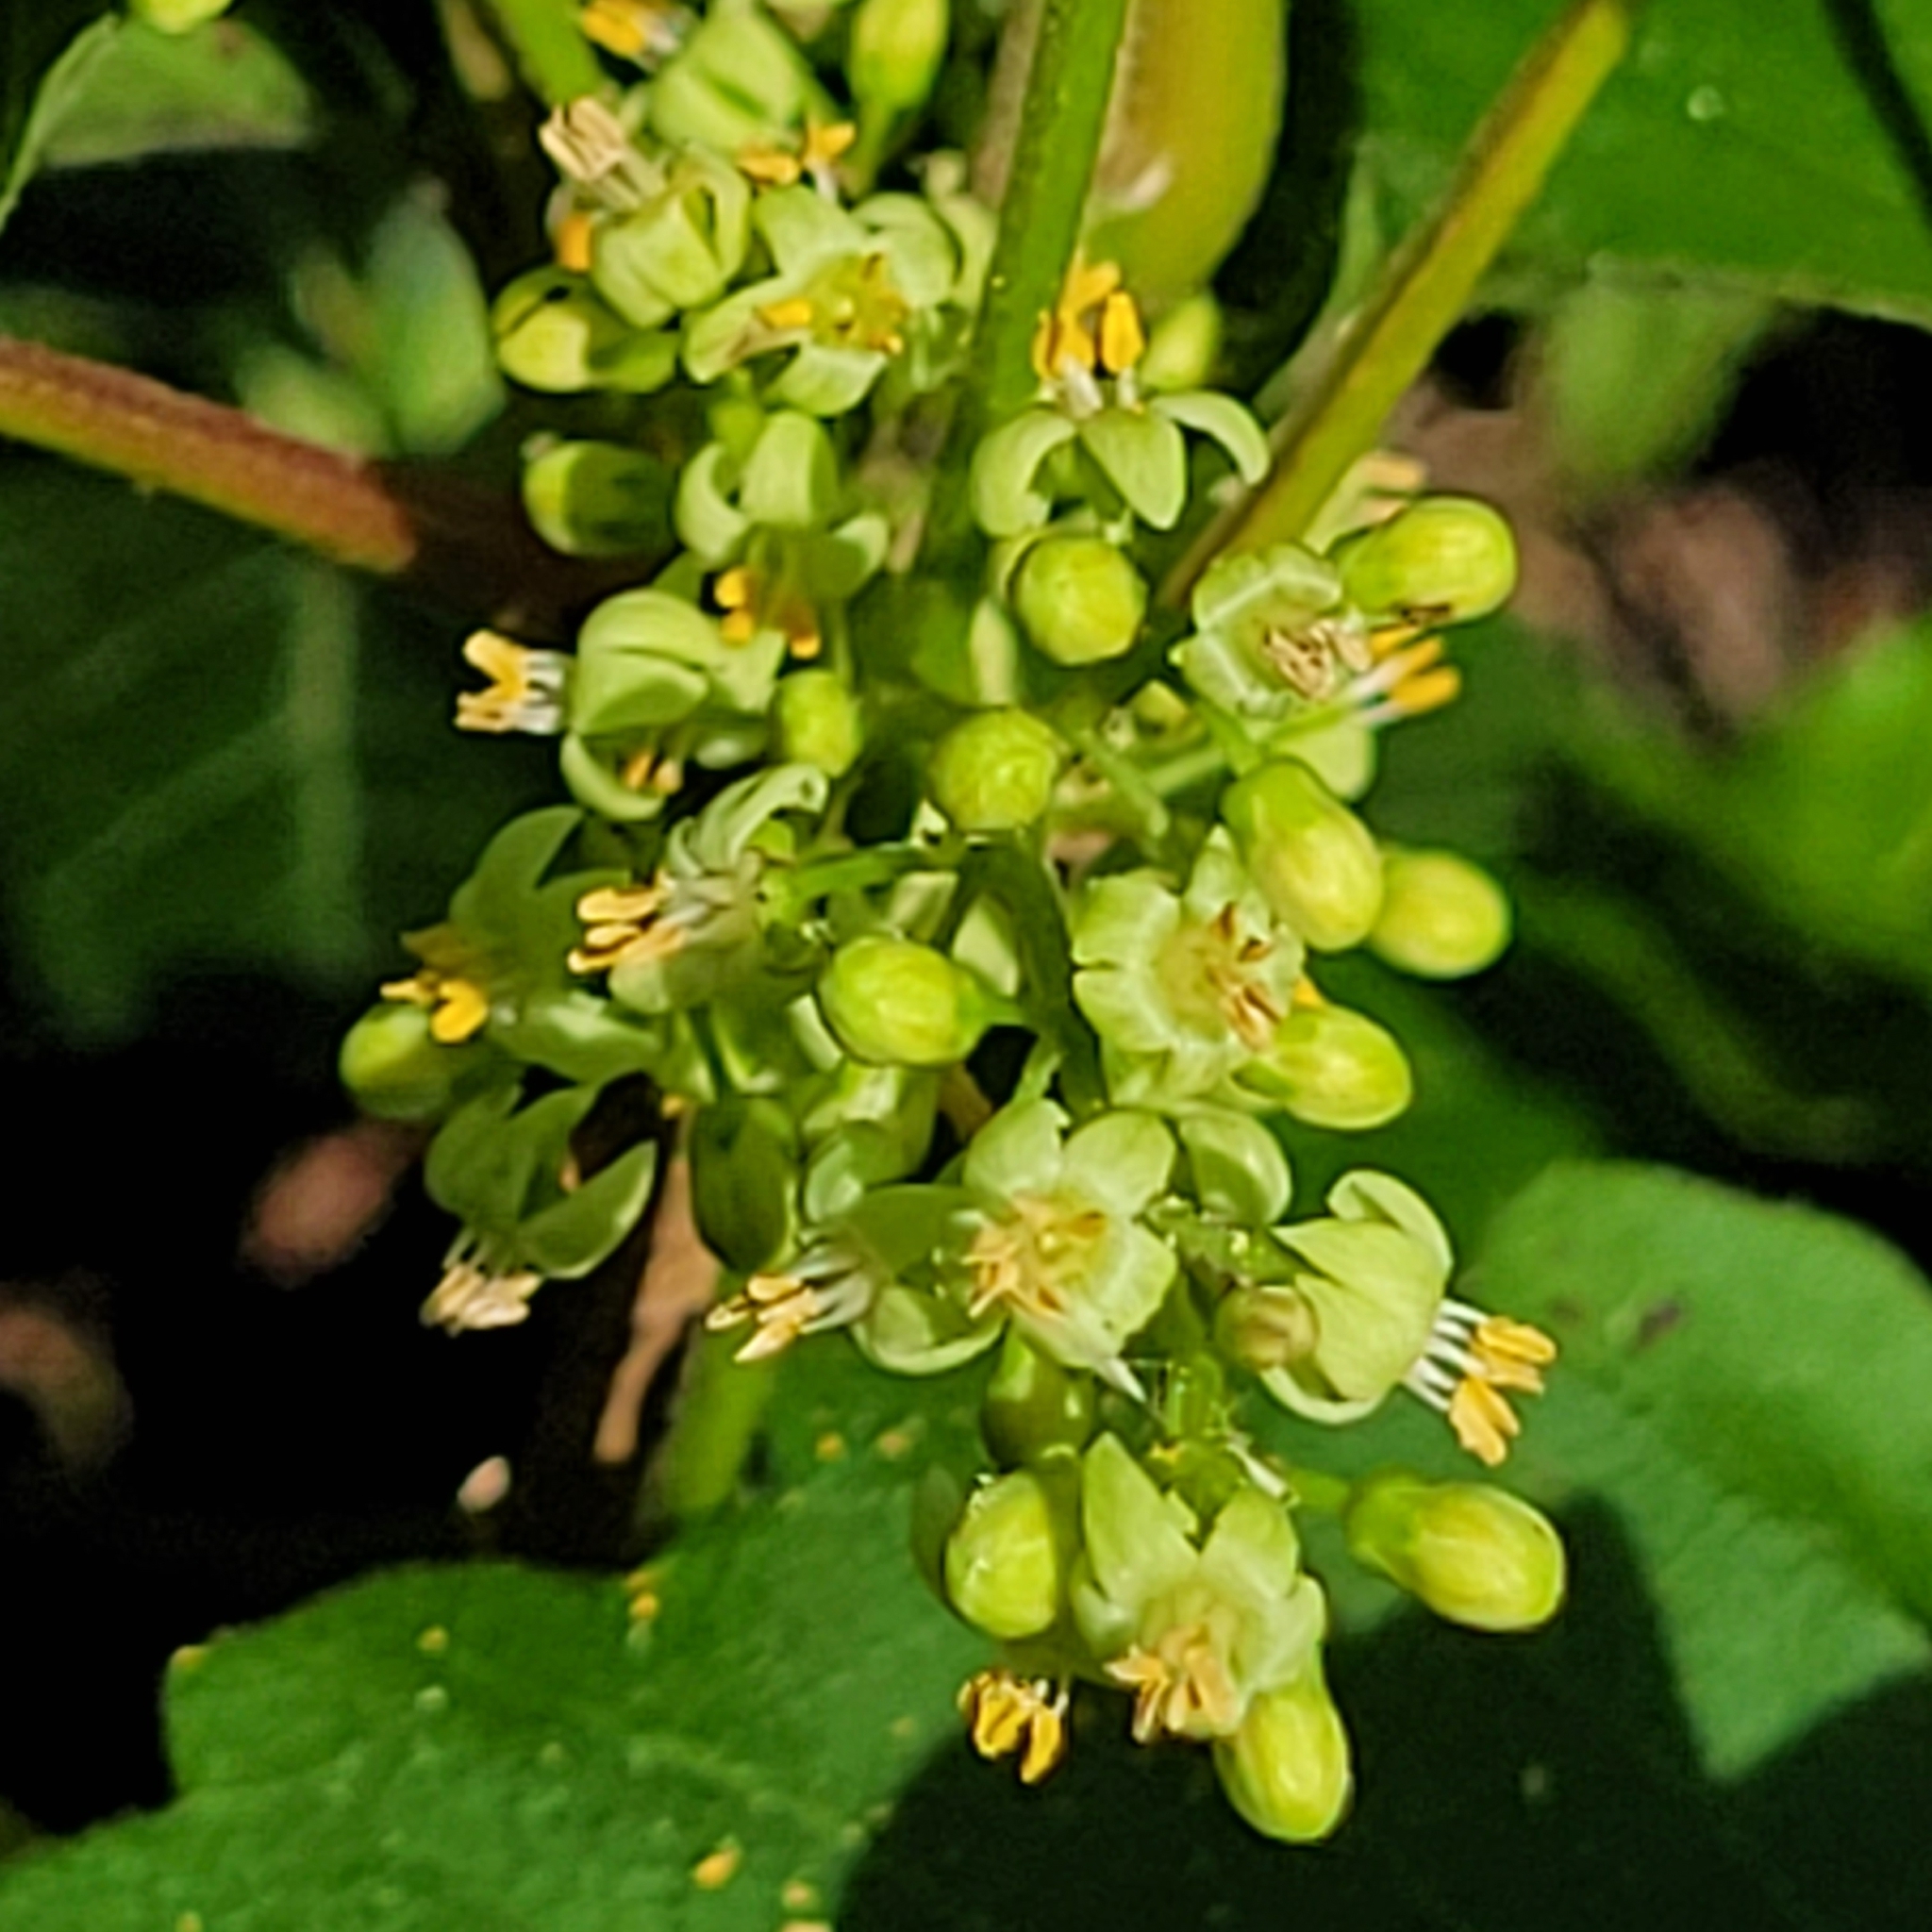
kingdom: Plantae
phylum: Tracheophyta
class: Magnoliopsida
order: Sapindales
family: Anacardiaceae
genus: Toxicodendron
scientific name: Toxicodendron radicans
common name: Poison ivy
